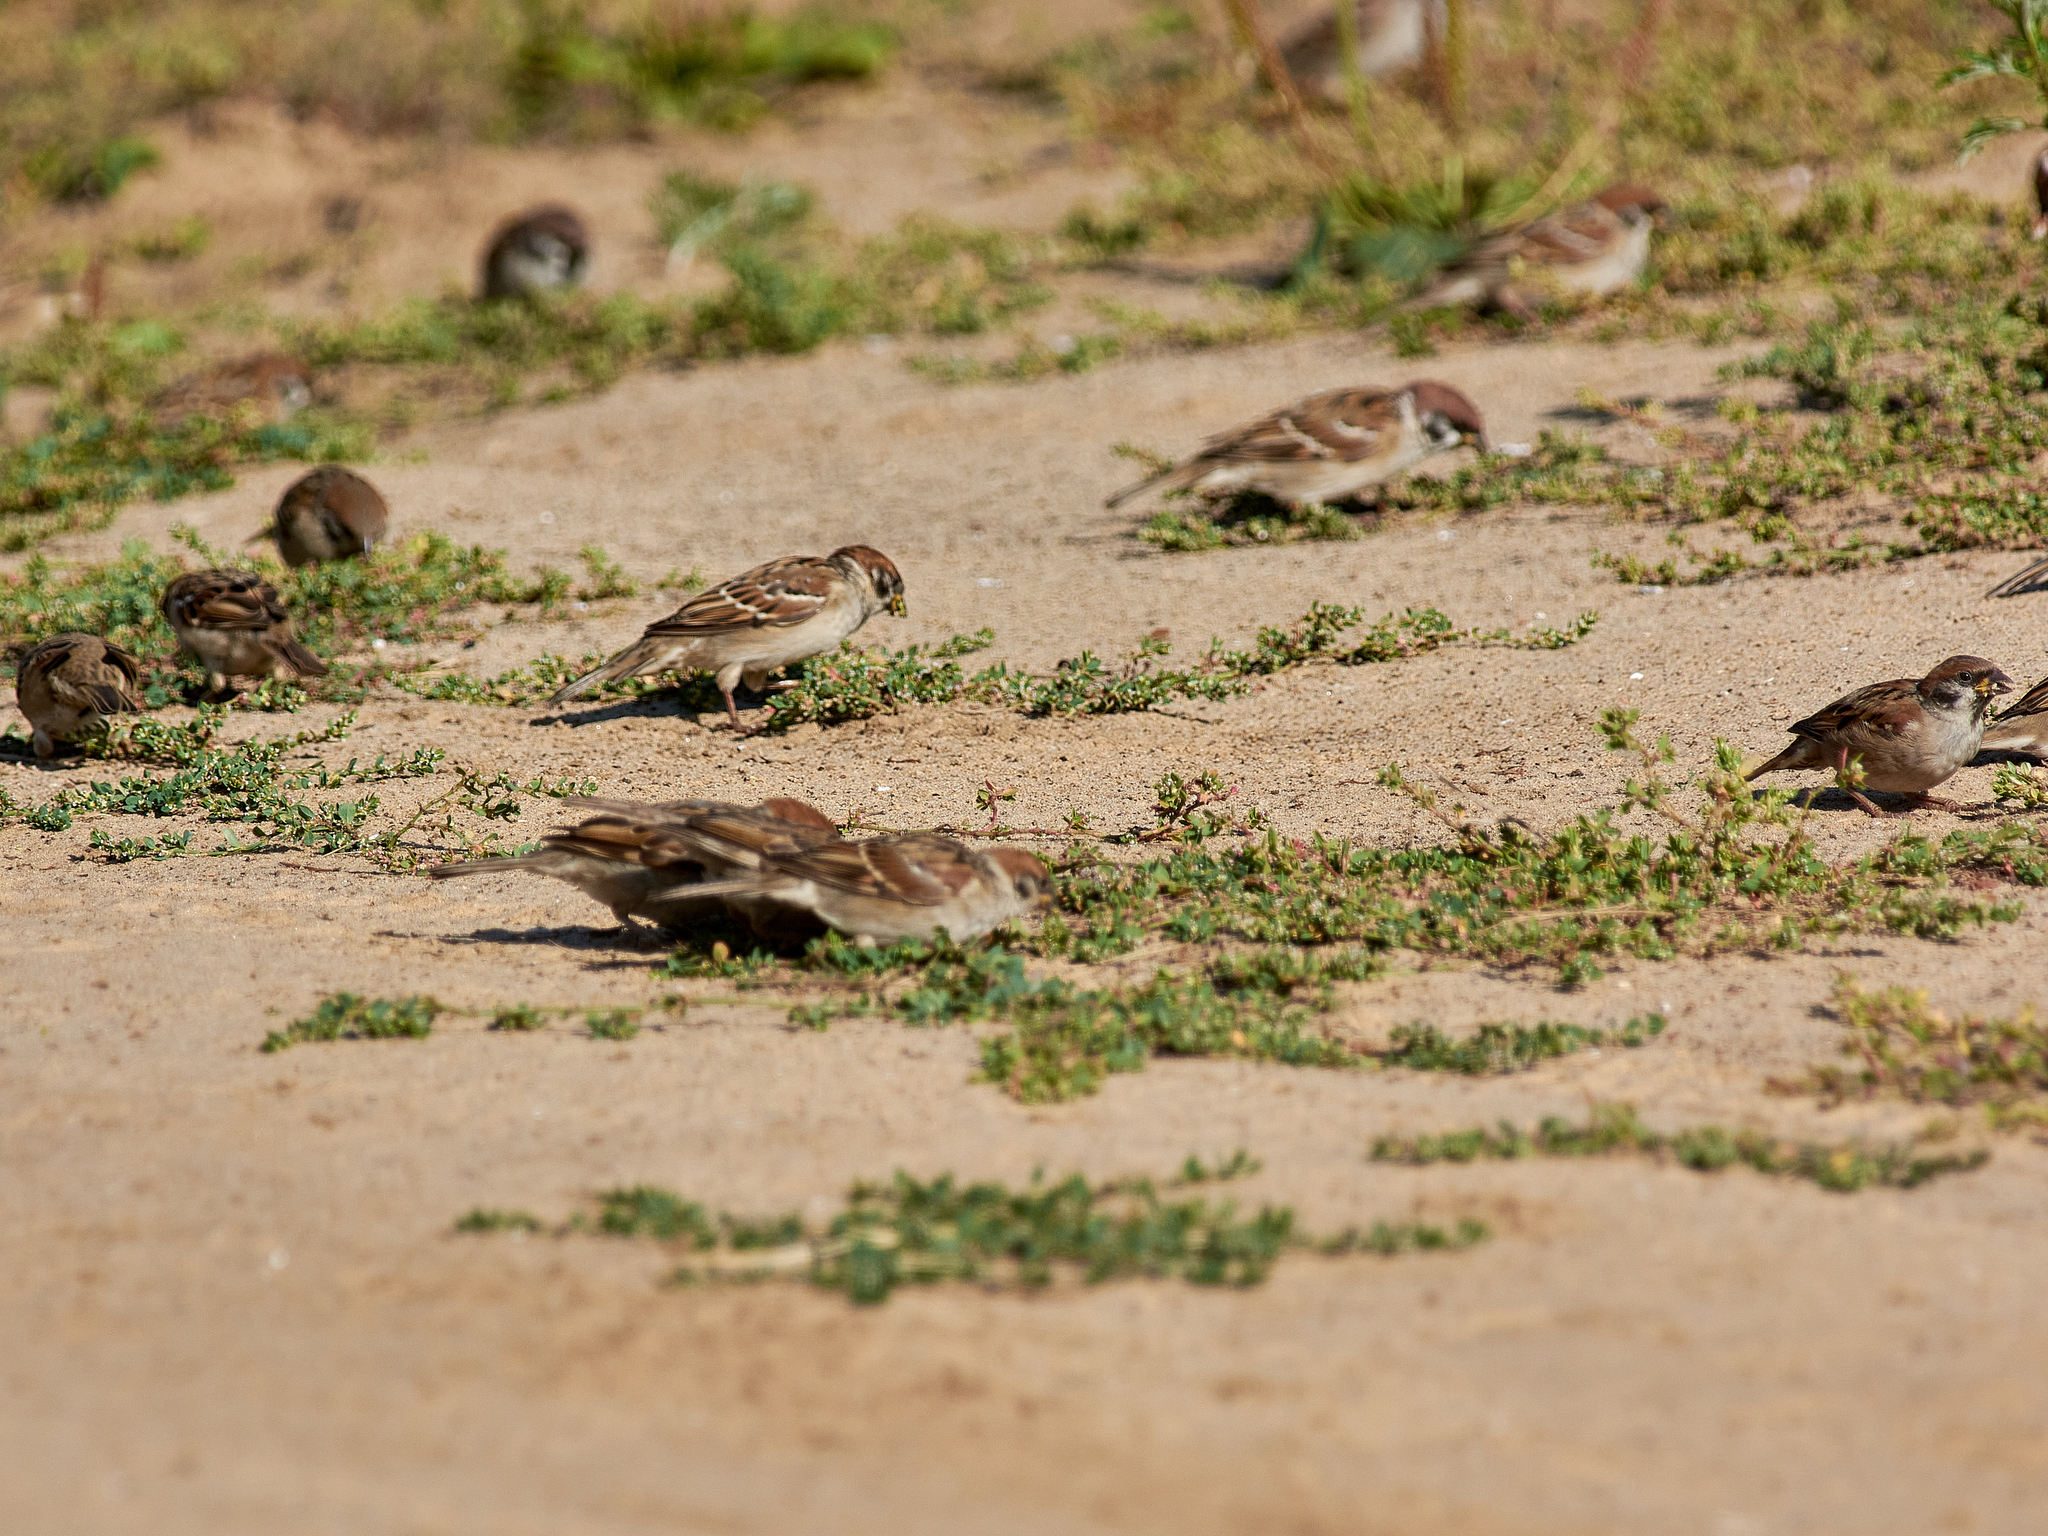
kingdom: Animalia
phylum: Chordata
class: Aves
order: Passeriformes
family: Passeridae
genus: Passer
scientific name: Passer montanus
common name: Eurasian tree sparrow
